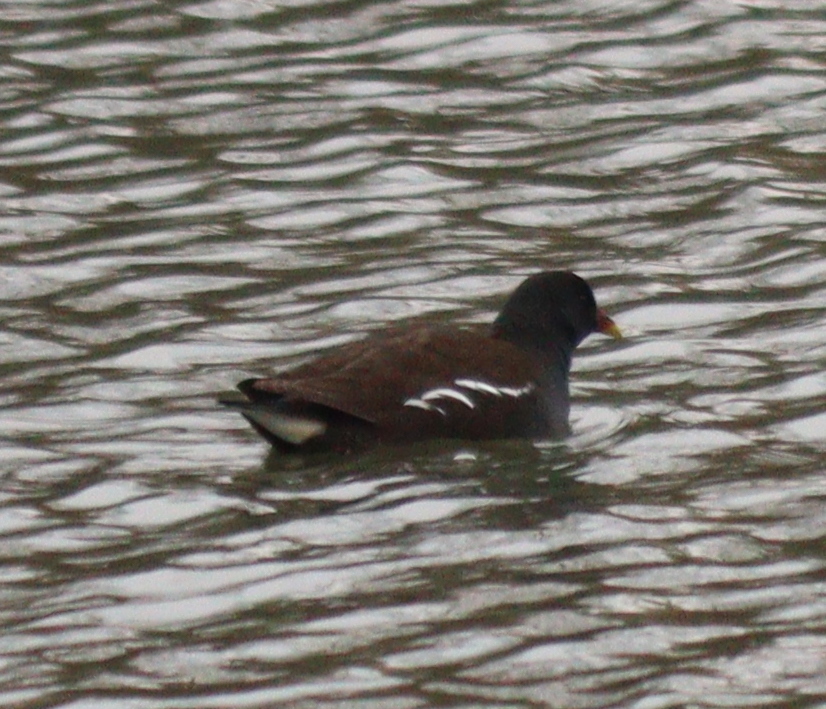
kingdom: Animalia
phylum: Chordata
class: Aves
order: Gruiformes
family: Rallidae
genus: Gallinula
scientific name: Gallinula chloropus
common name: Common moorhen
